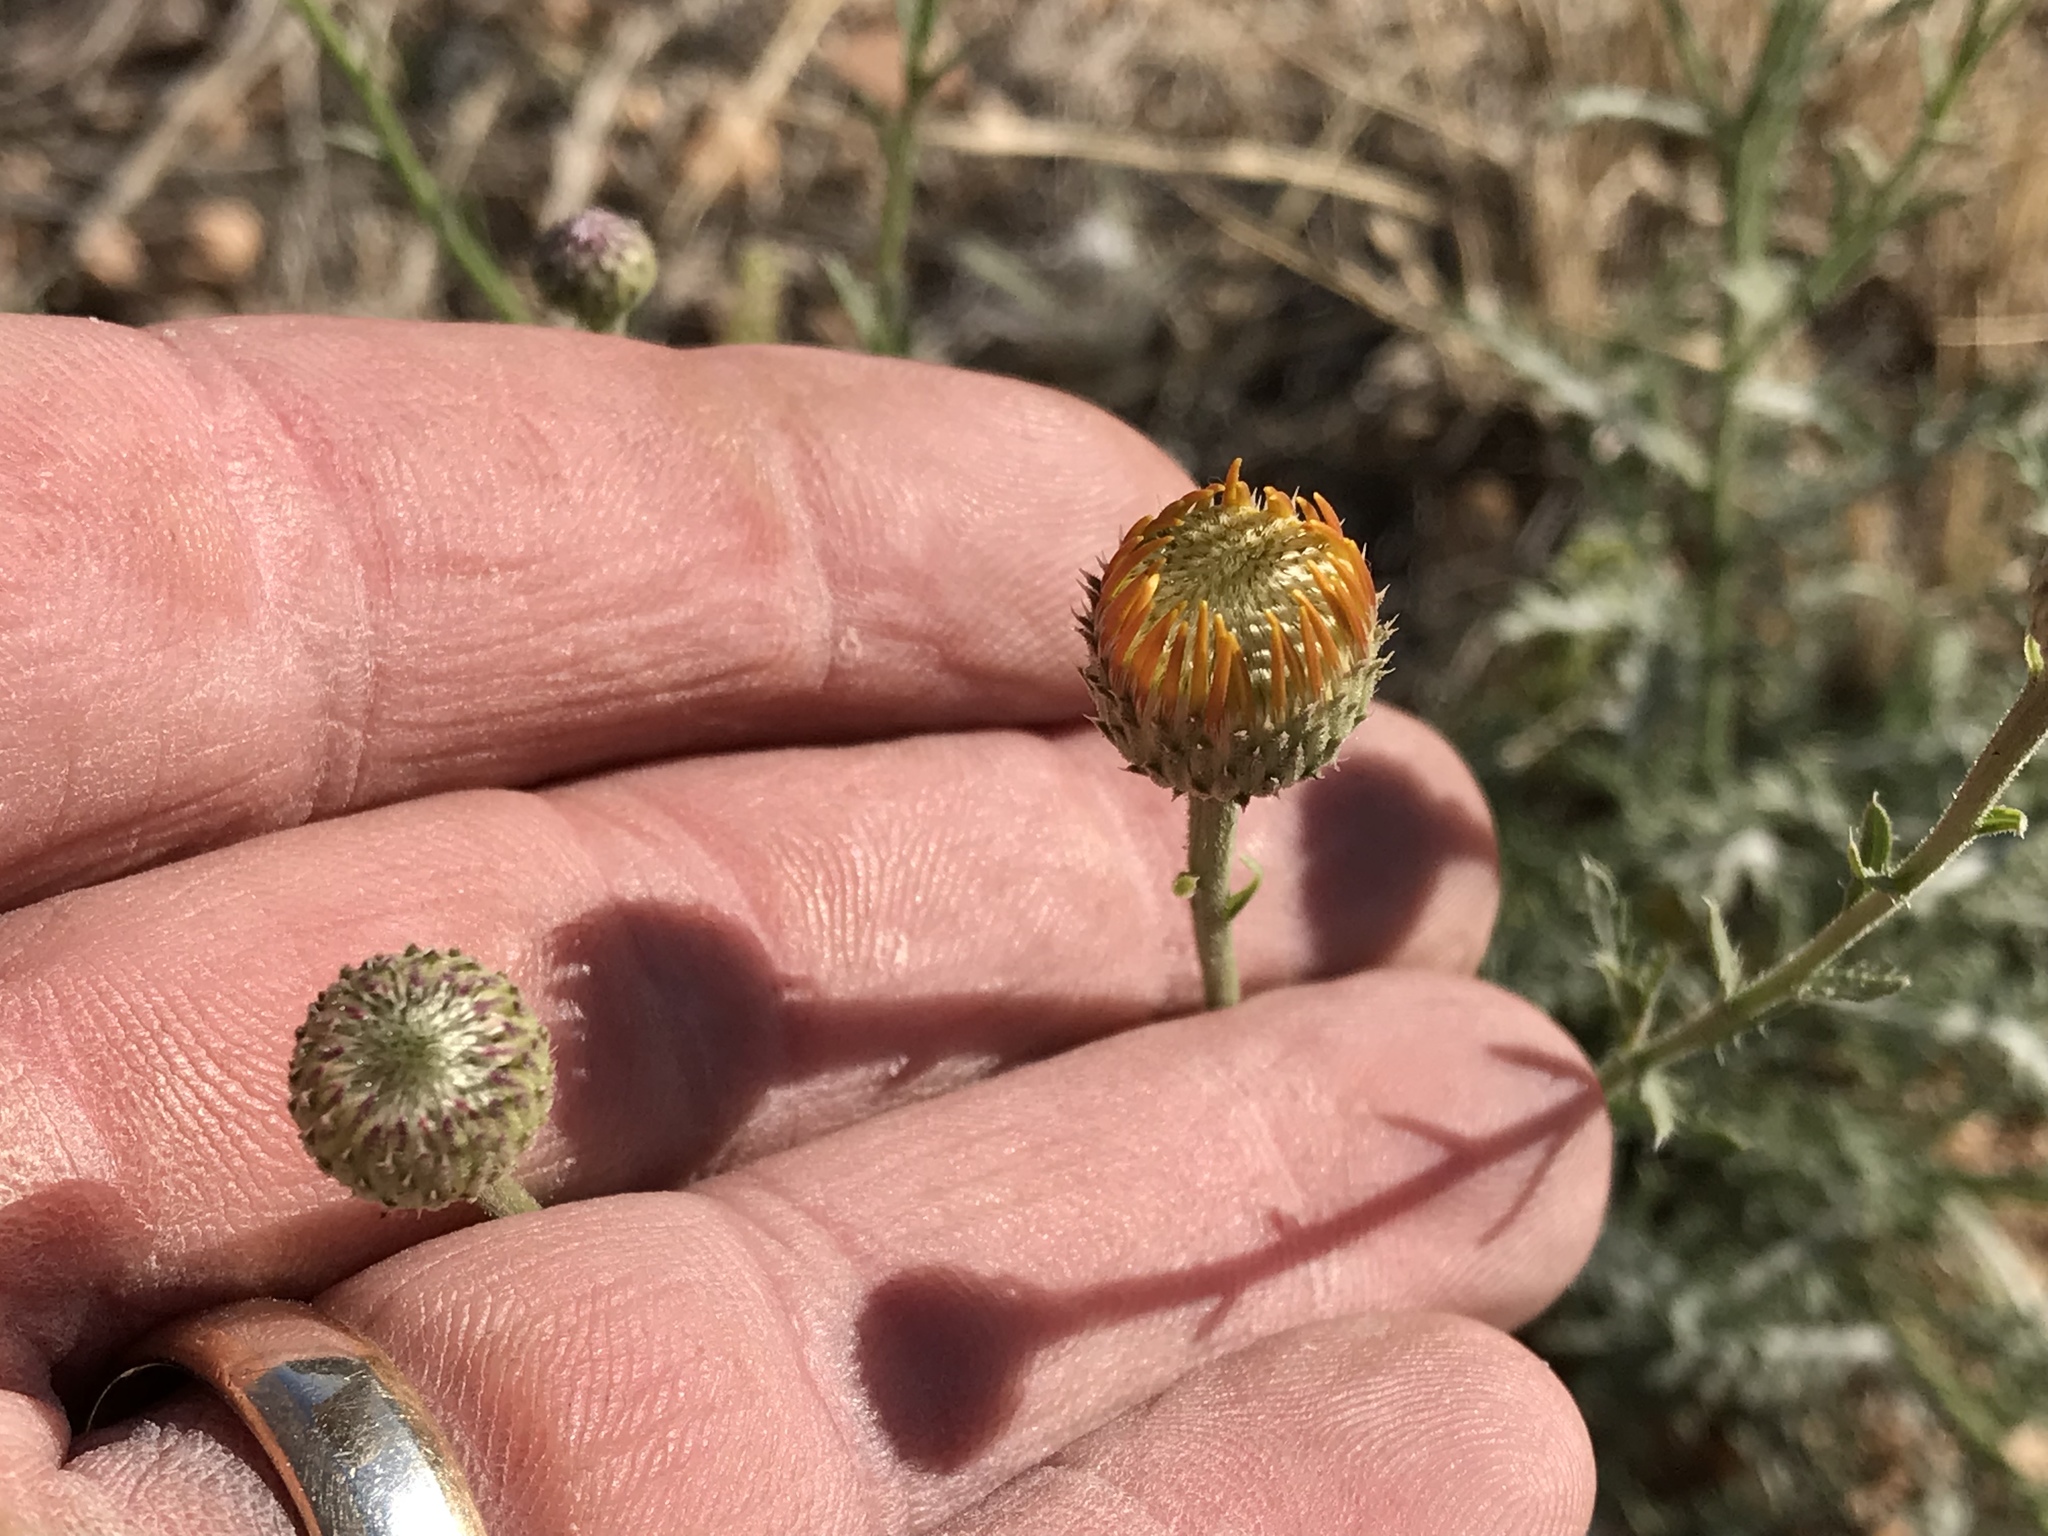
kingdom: Plantae
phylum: Tracheophyta
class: Magnoliopsida
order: Asterales
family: Asteraceae
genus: Xanthisma
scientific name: Xanthisma spinulosum
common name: Spiny goldenweed
